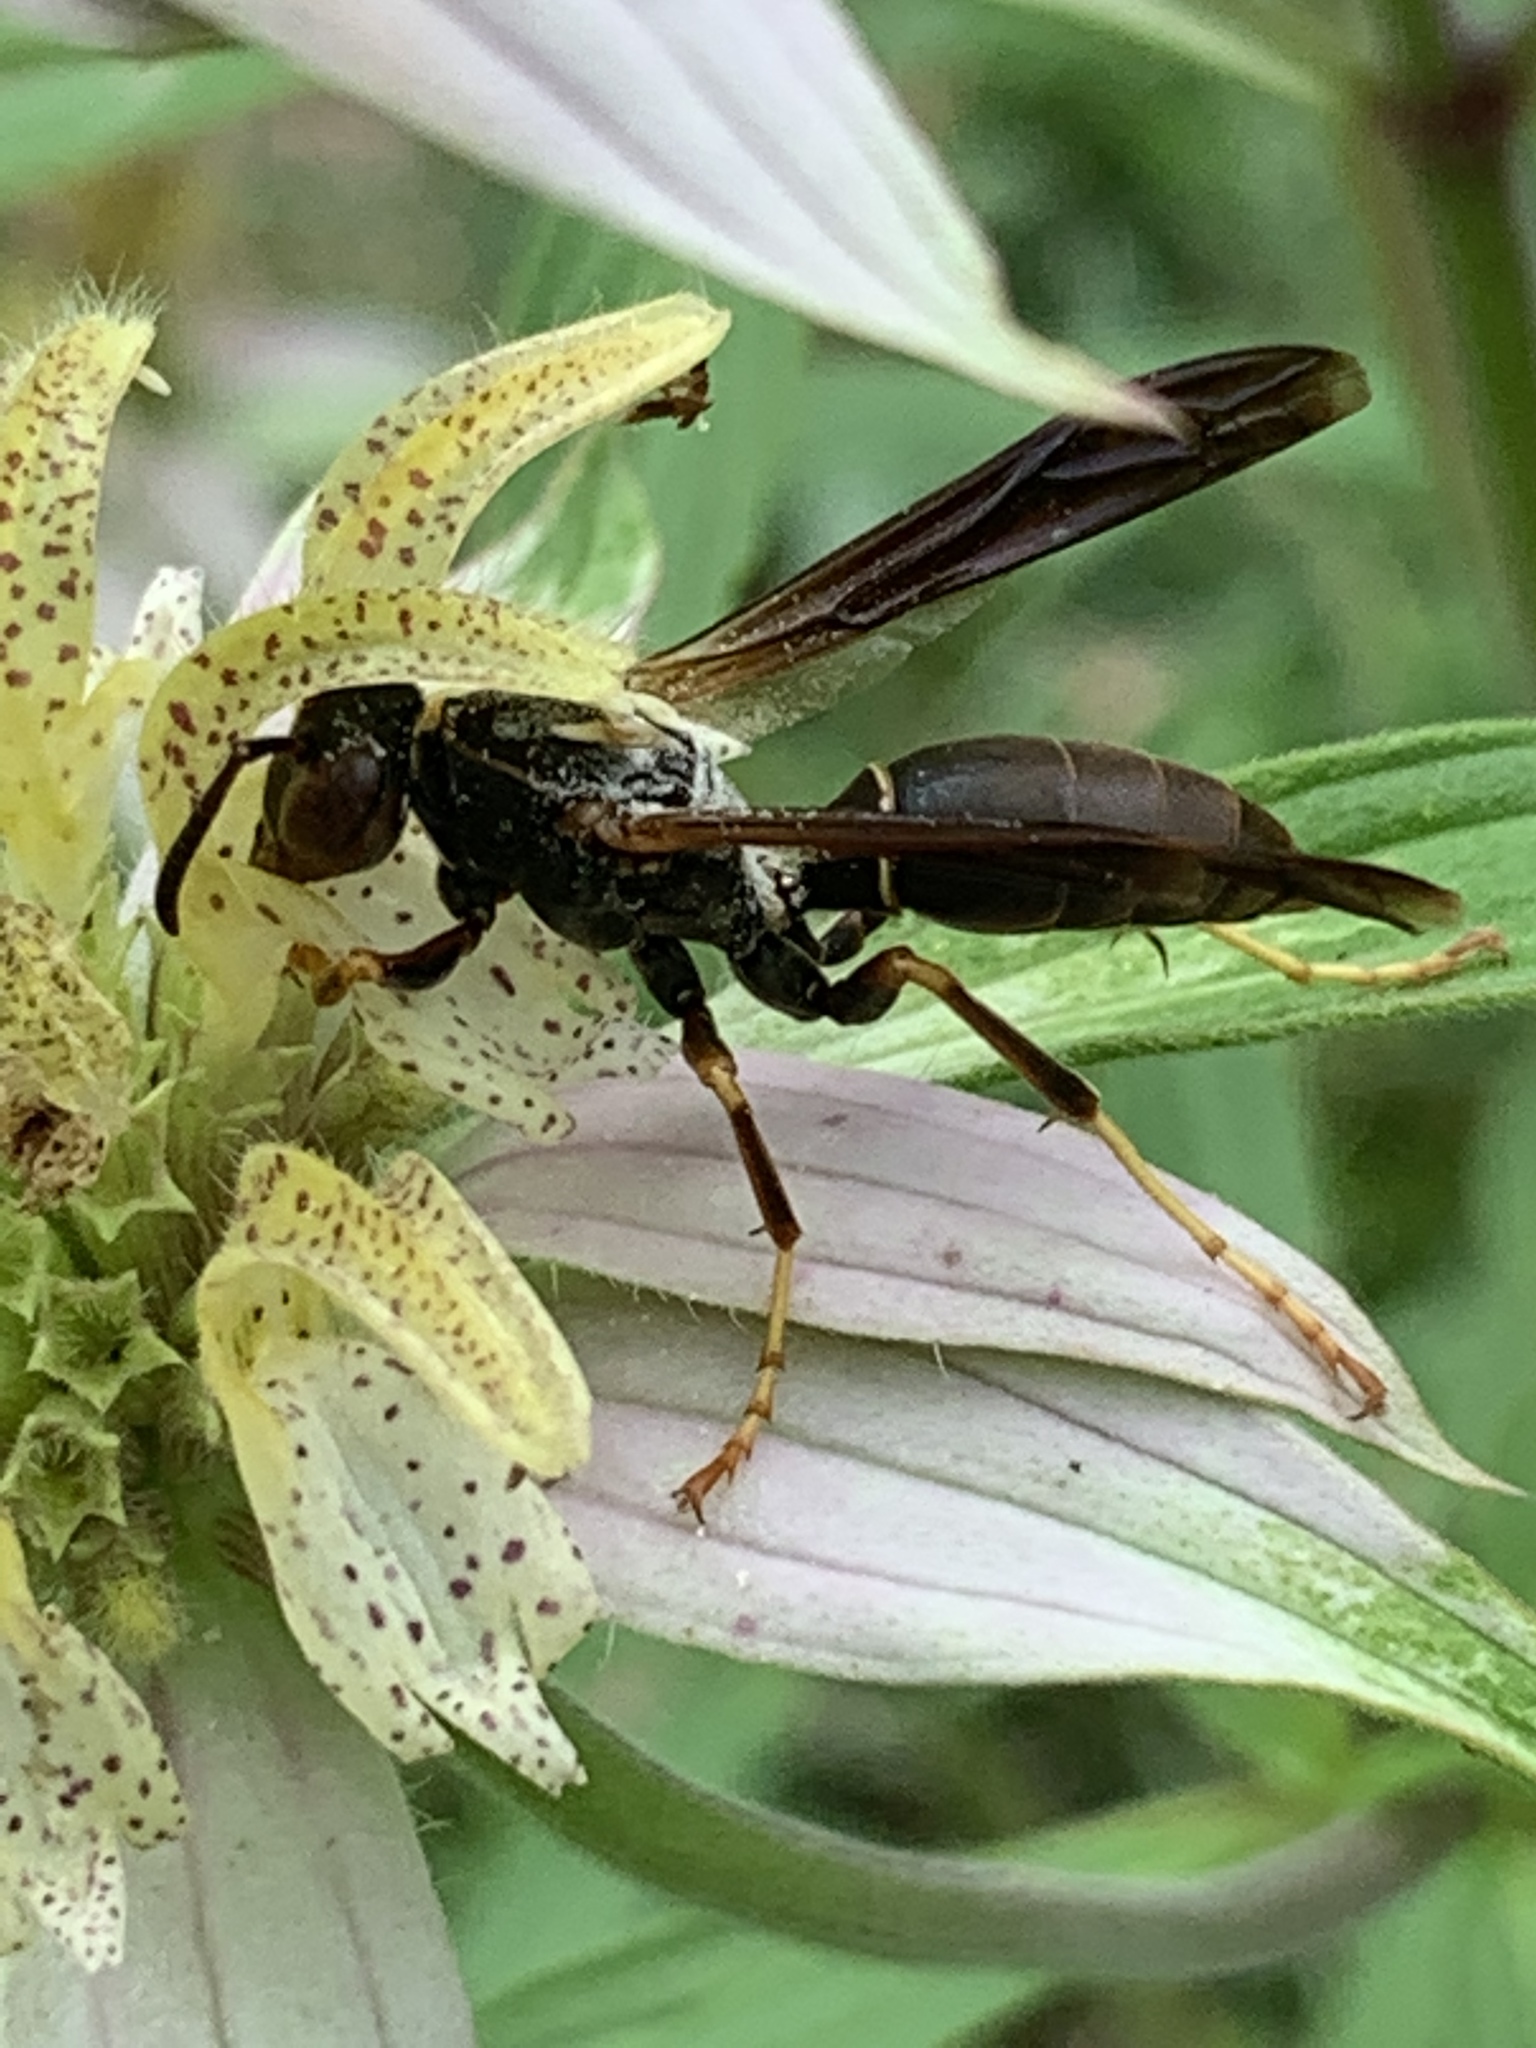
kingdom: Animalia
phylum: Arthropoda
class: Insecta
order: Hymenoptera
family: Eumenidae
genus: Polistes
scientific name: Polistes fuscatus
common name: Dark paper wasp
